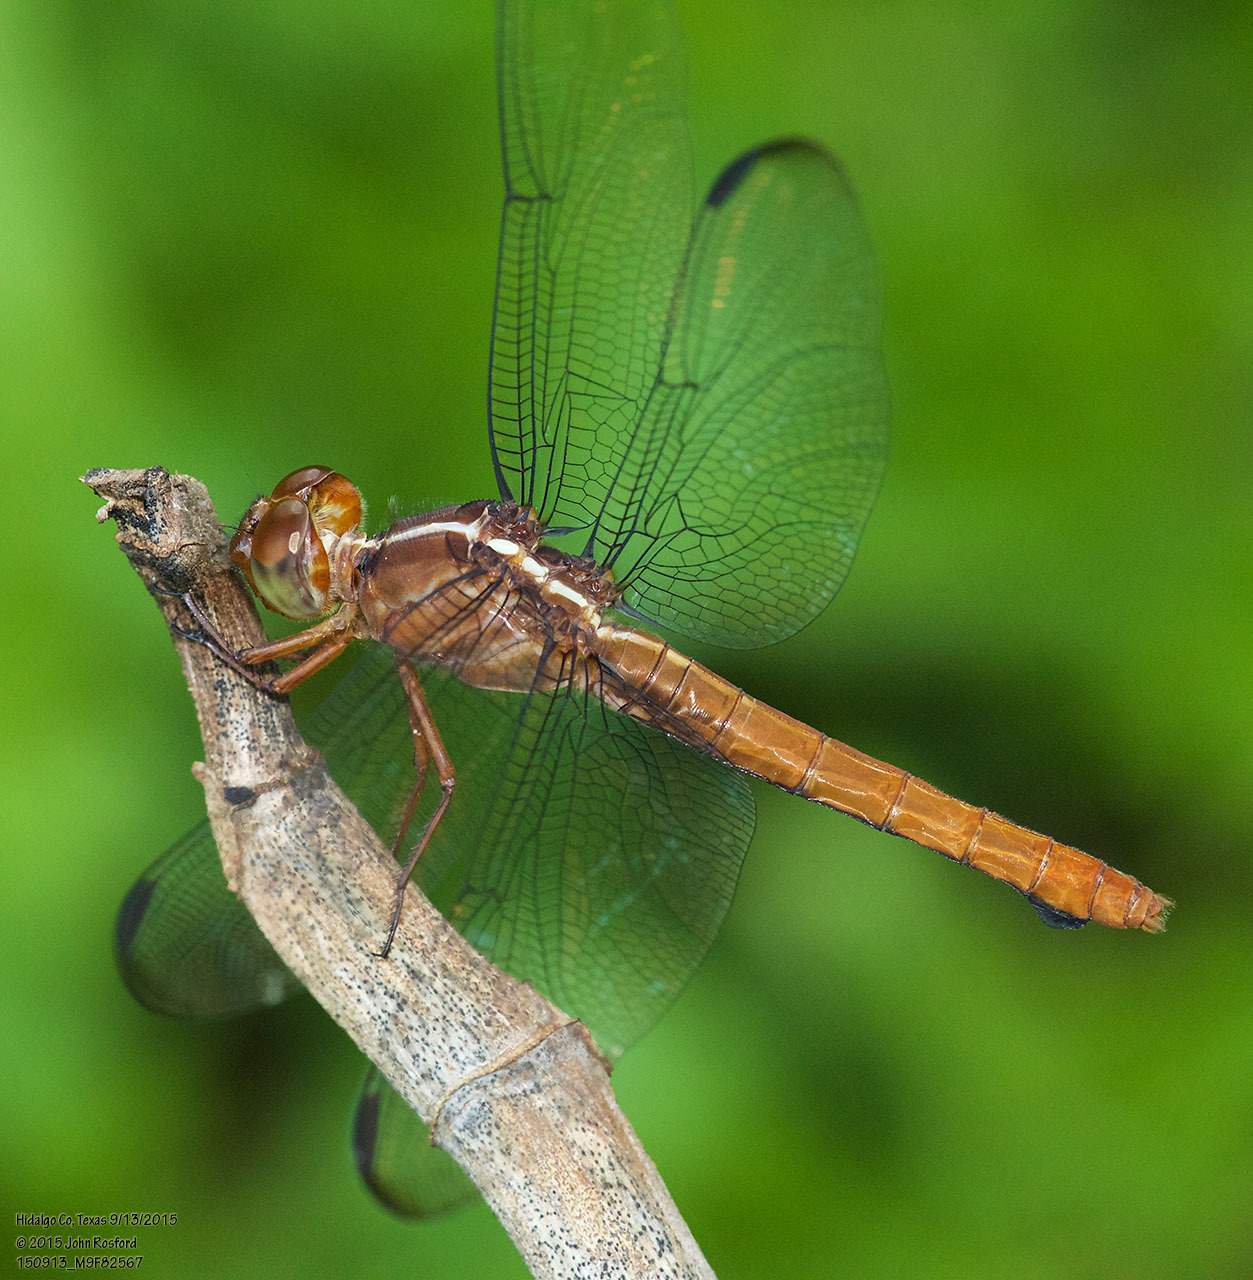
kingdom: Animalia
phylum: Arthropoda
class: Insecta
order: Odonata
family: Libellulidae
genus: Orthemis
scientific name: Orthemis discolor
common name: Carmine skimmer
